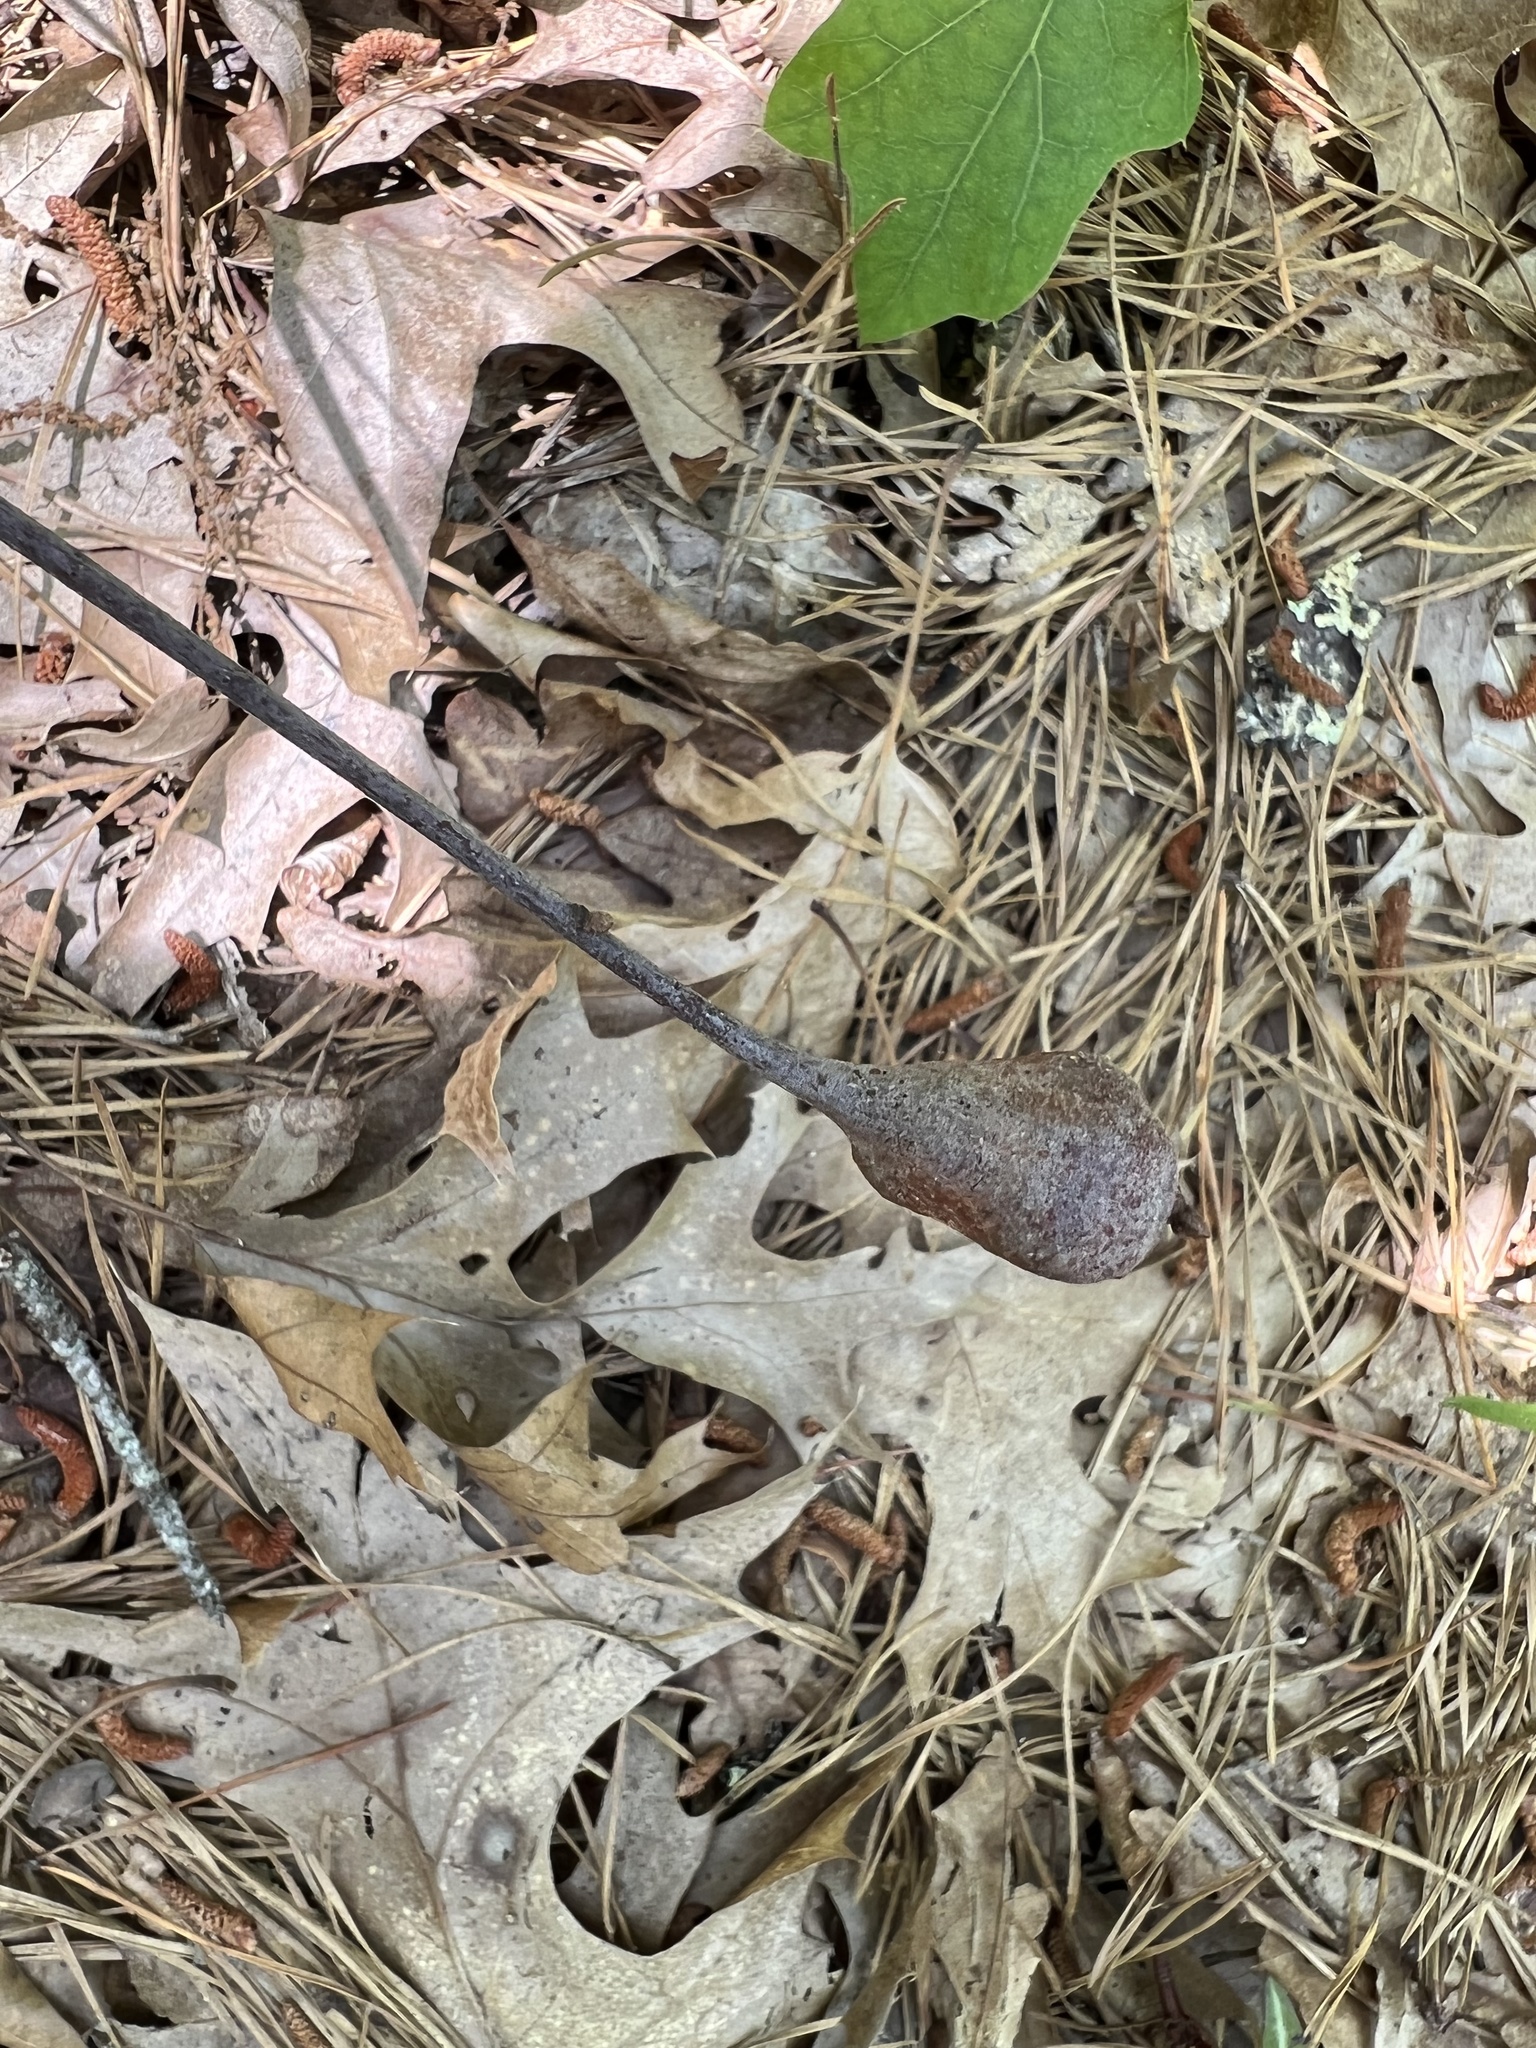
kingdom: Animalia
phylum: Arthropoda
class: Insecta
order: Hymenoptera
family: Cynipidae
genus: Zapatella
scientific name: Zapatella quercusphellos
